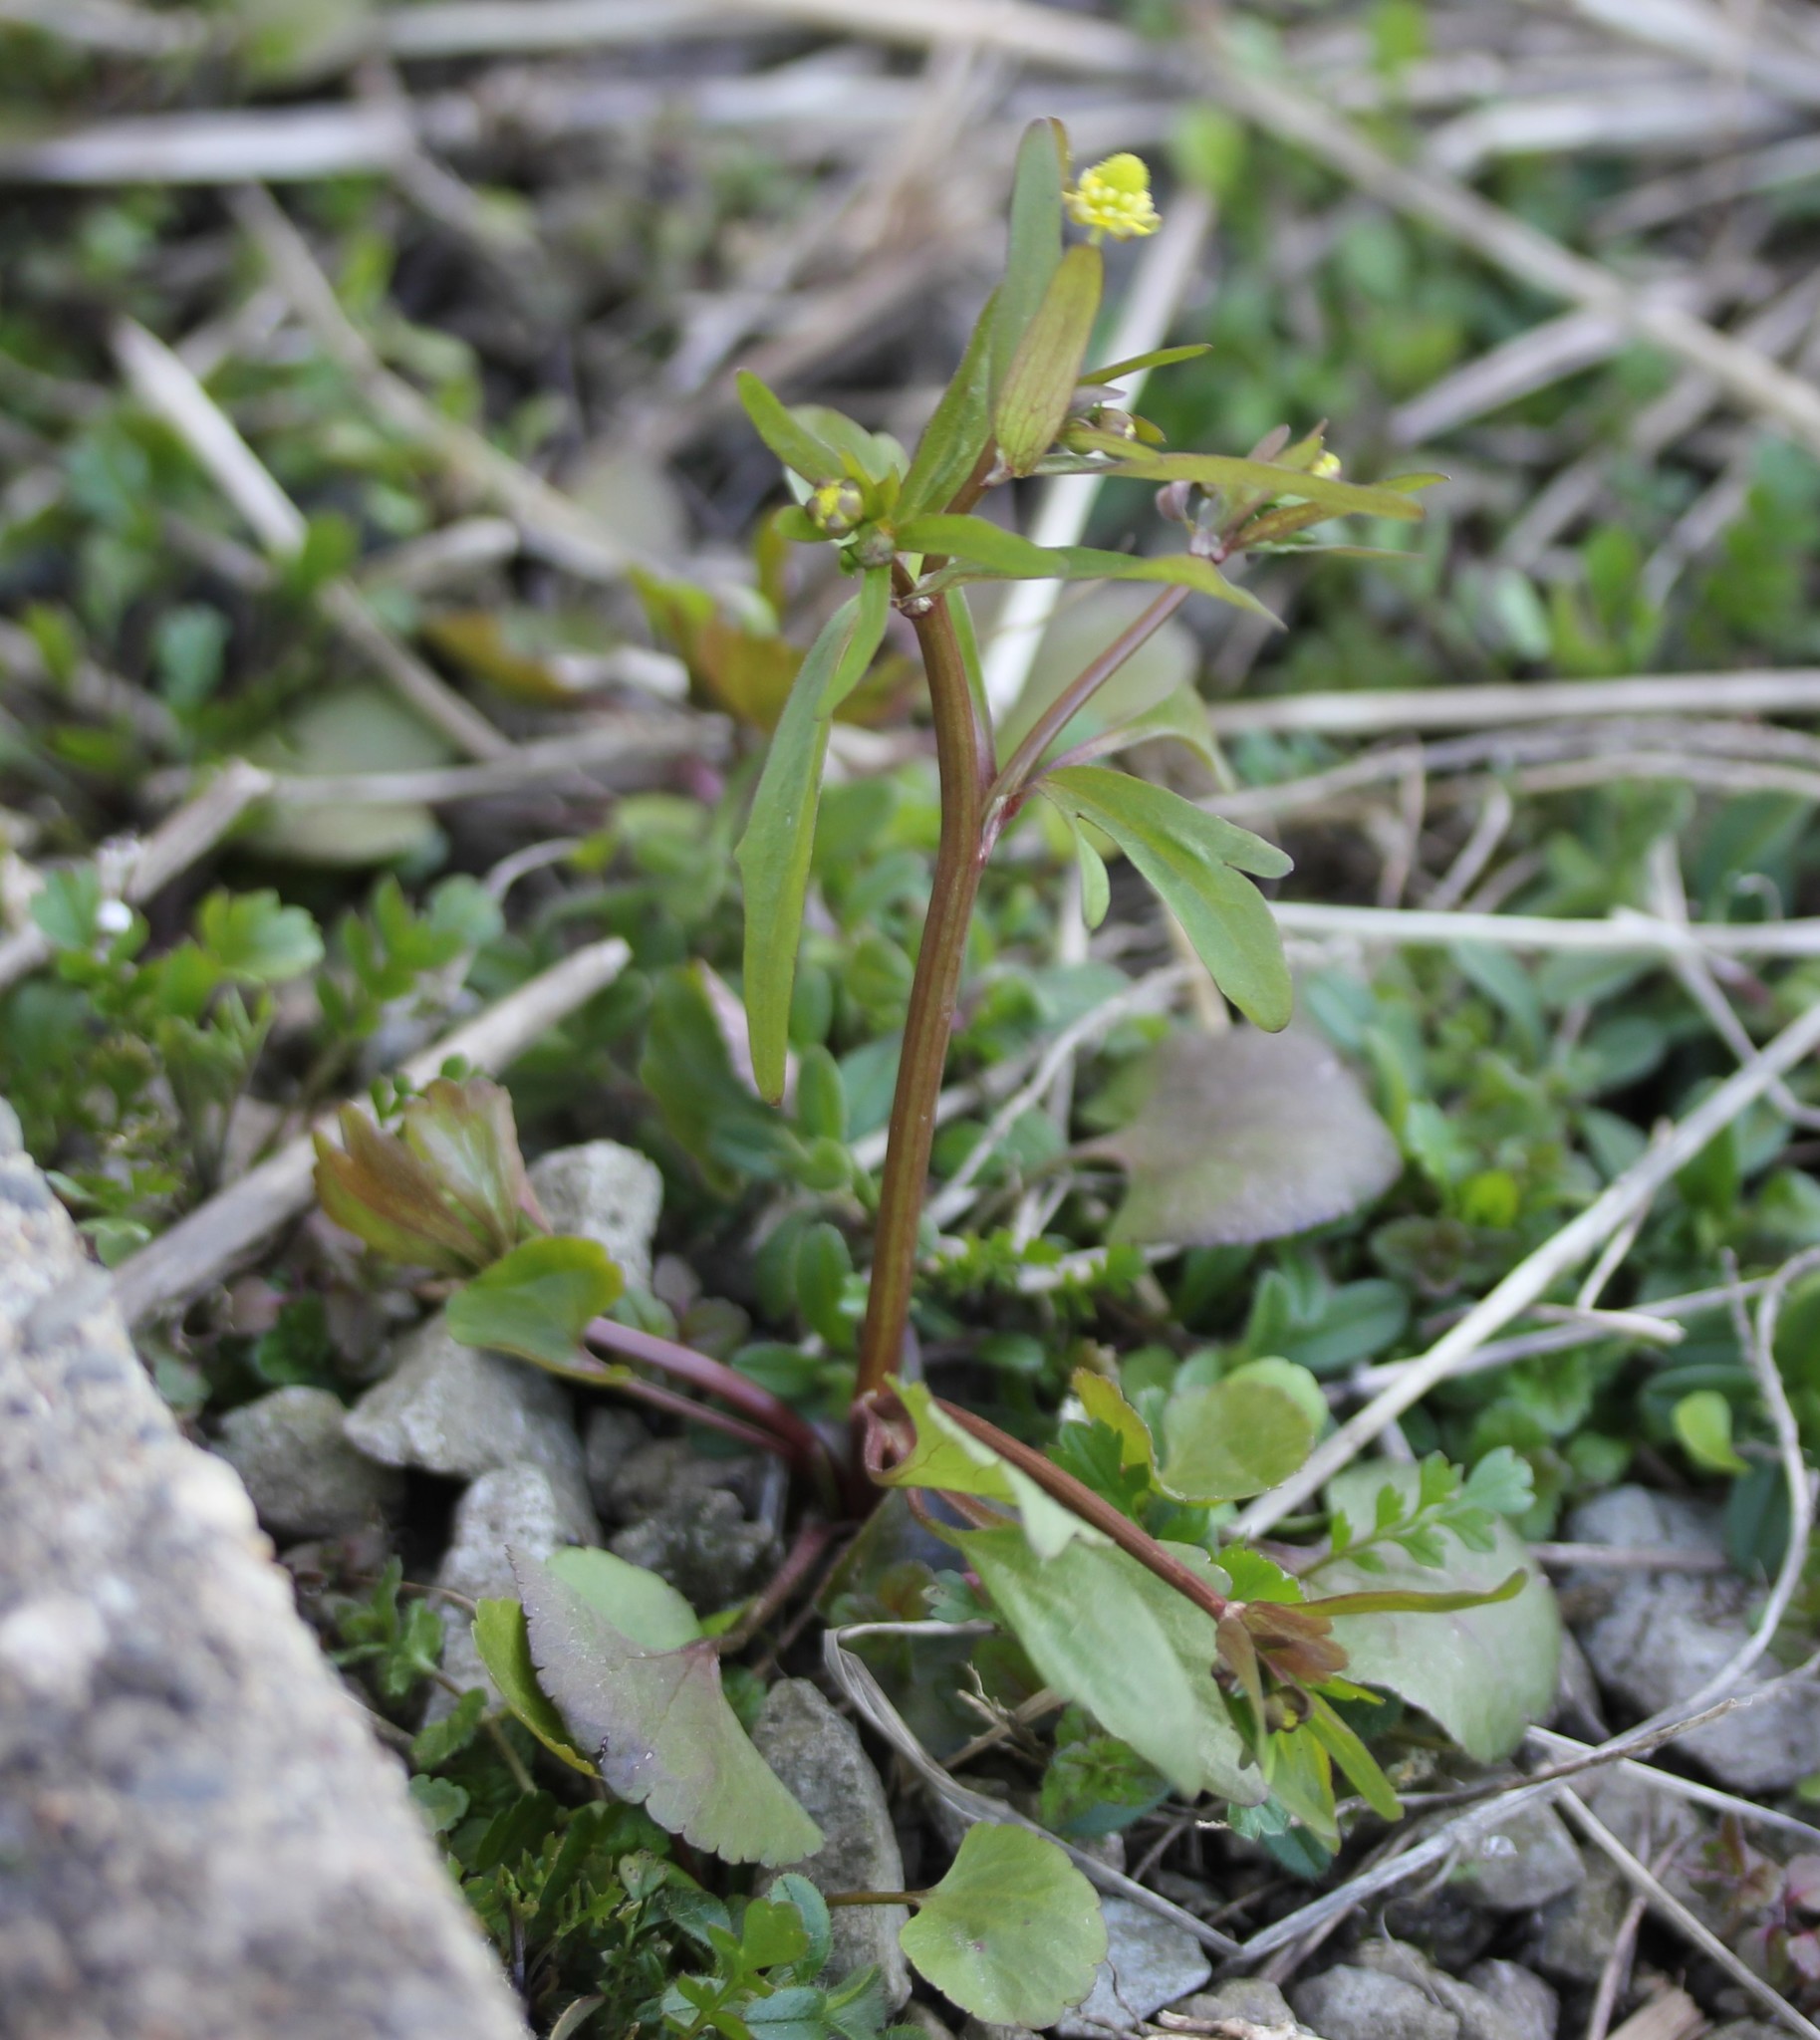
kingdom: Plantae
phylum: Tracheophyta
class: Magnoliopsida
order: Ranunculales
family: Ranunculaceae
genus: Ranunculus
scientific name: Ranunculus abortivus
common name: Early wood buttercup
